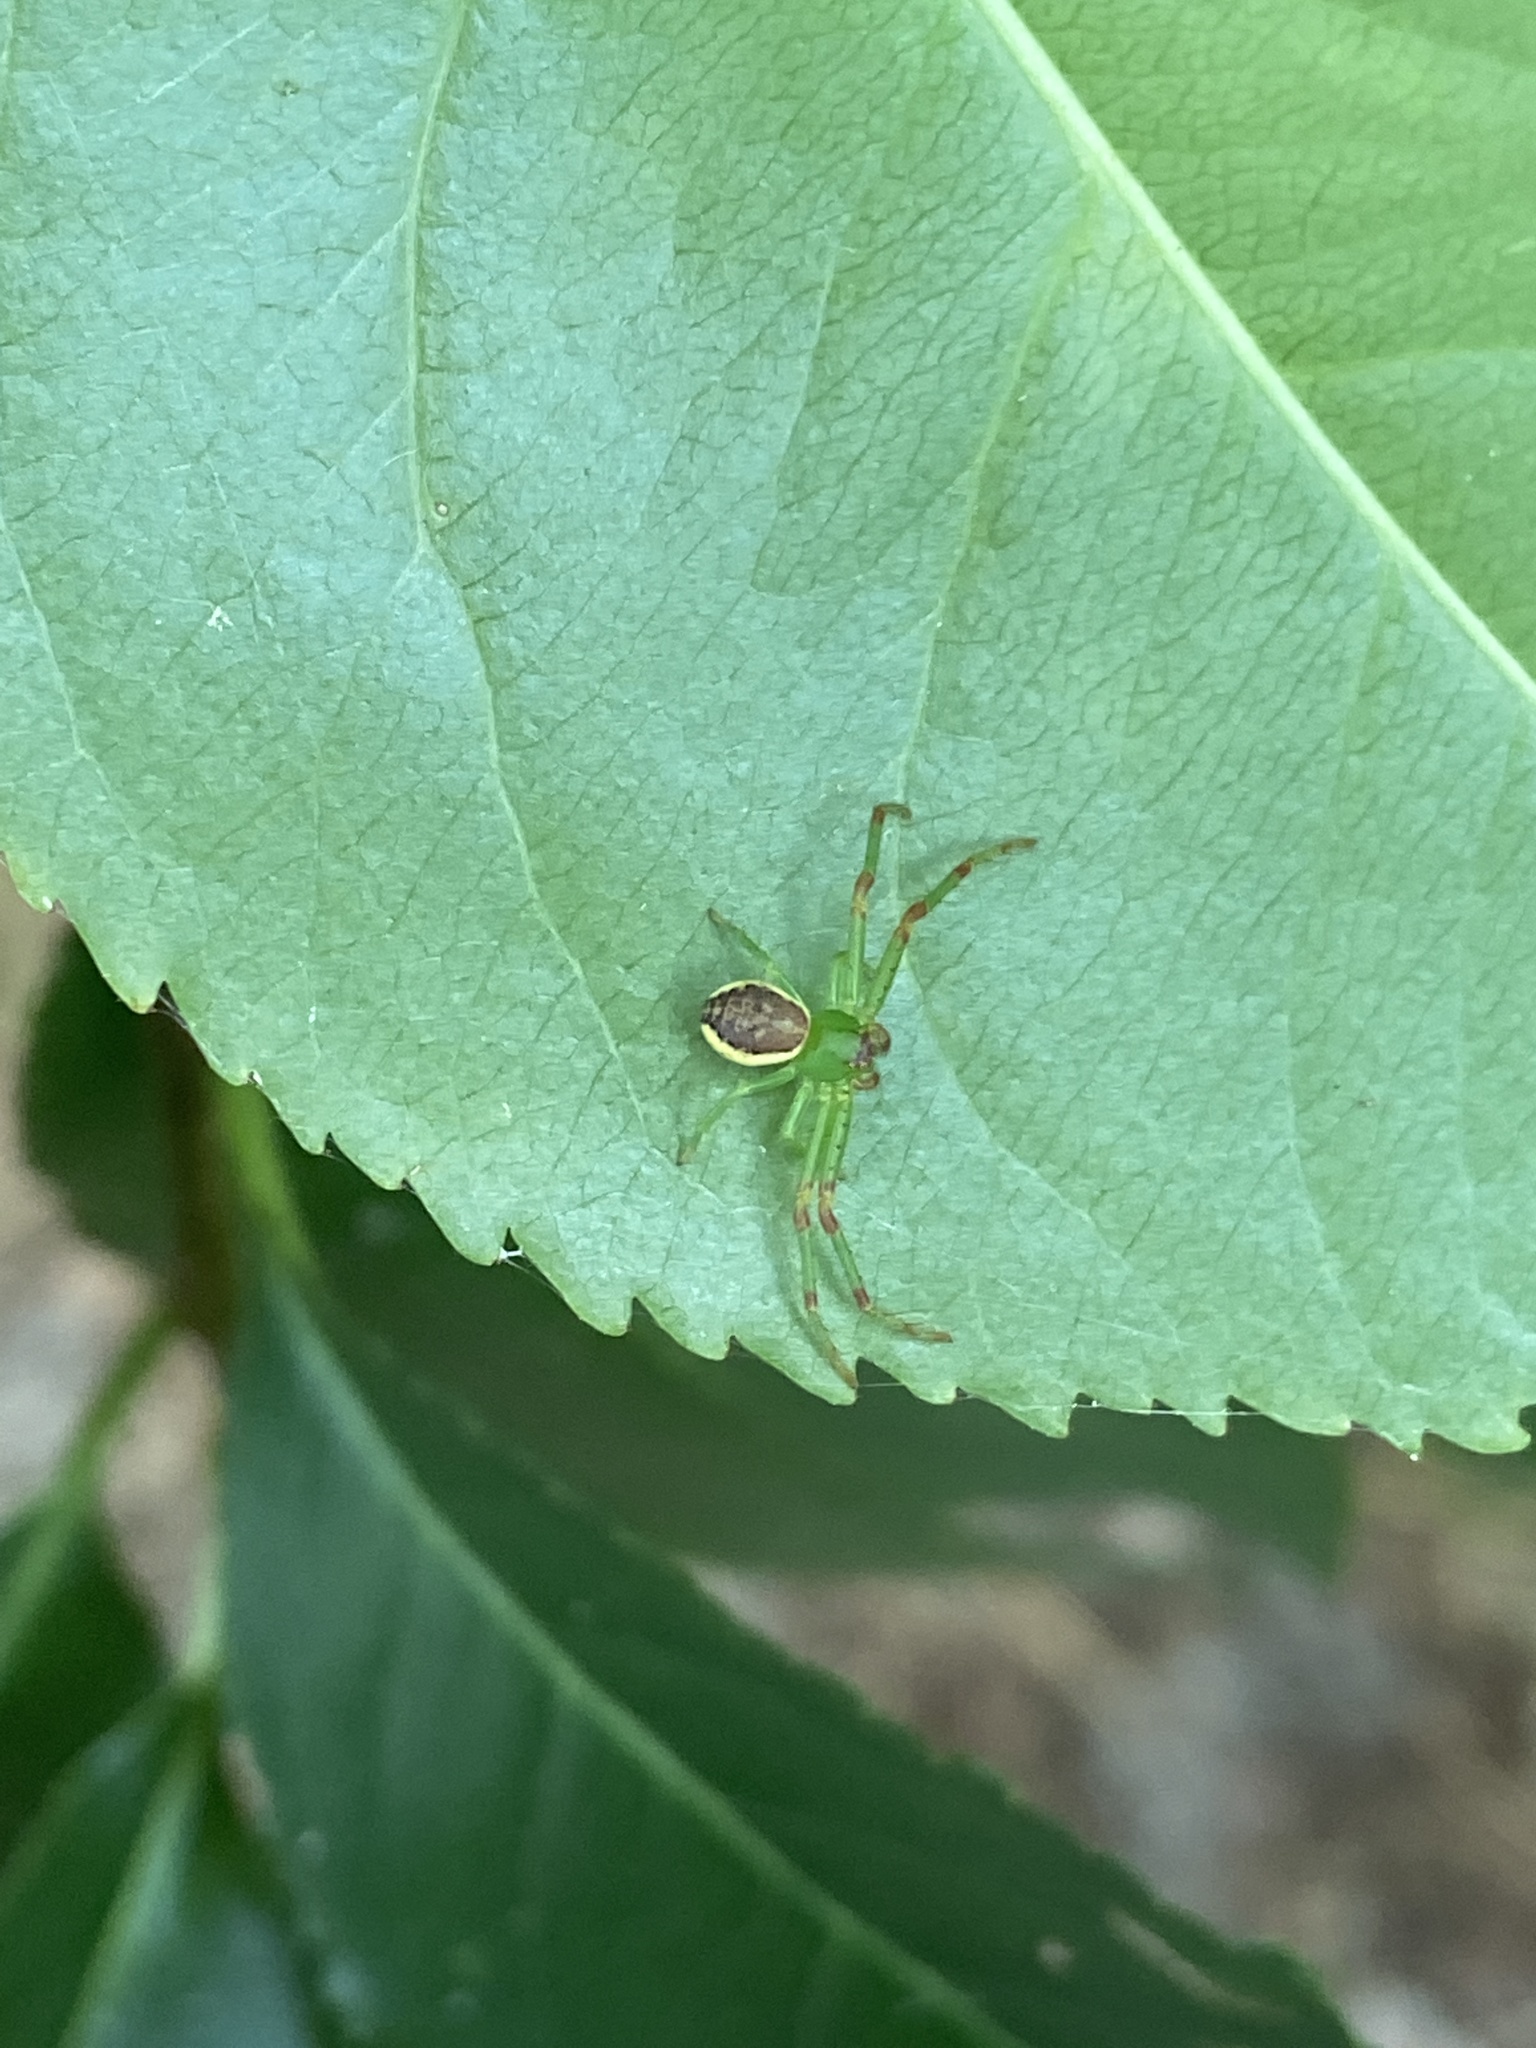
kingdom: Animalia
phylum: Arthropoda
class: Arachnida
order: Araneae
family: Thomisidae
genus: Diaea
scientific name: Diaea dorsata
